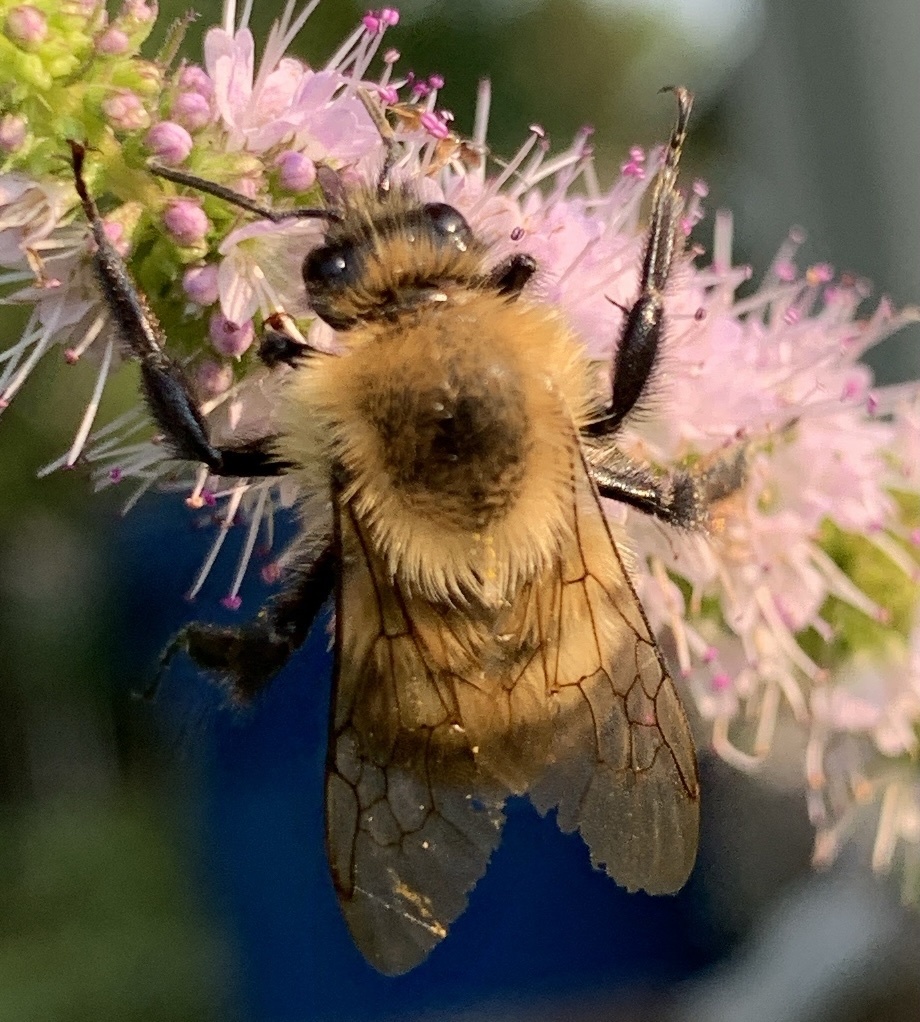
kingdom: Animalia
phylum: Arthropoda
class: Insecta
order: Hymenoptera
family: Apidae
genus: Bombus
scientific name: Bombus bimaculatus
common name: Two-spotted bumble bee
